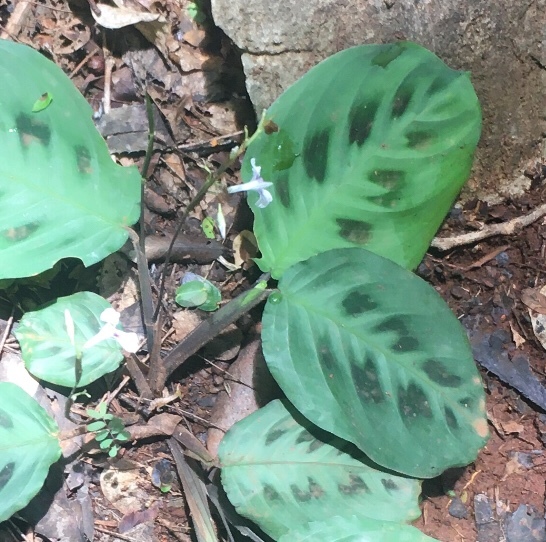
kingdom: Plantae
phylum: Tracheophyta
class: Liliopsida
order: Zingiberales
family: Marantaceae
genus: Maranta
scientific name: Maranta leuconeura
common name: Ten-commandments
